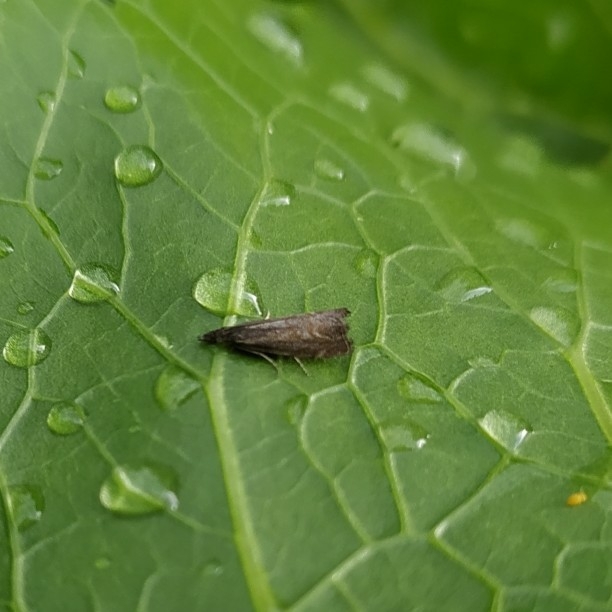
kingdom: Animalia
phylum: Arthropoda
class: Insecta
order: Lepidoptera
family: Crambidae
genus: Platytes
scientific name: Platytes cerusella
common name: Little grass-veneer
